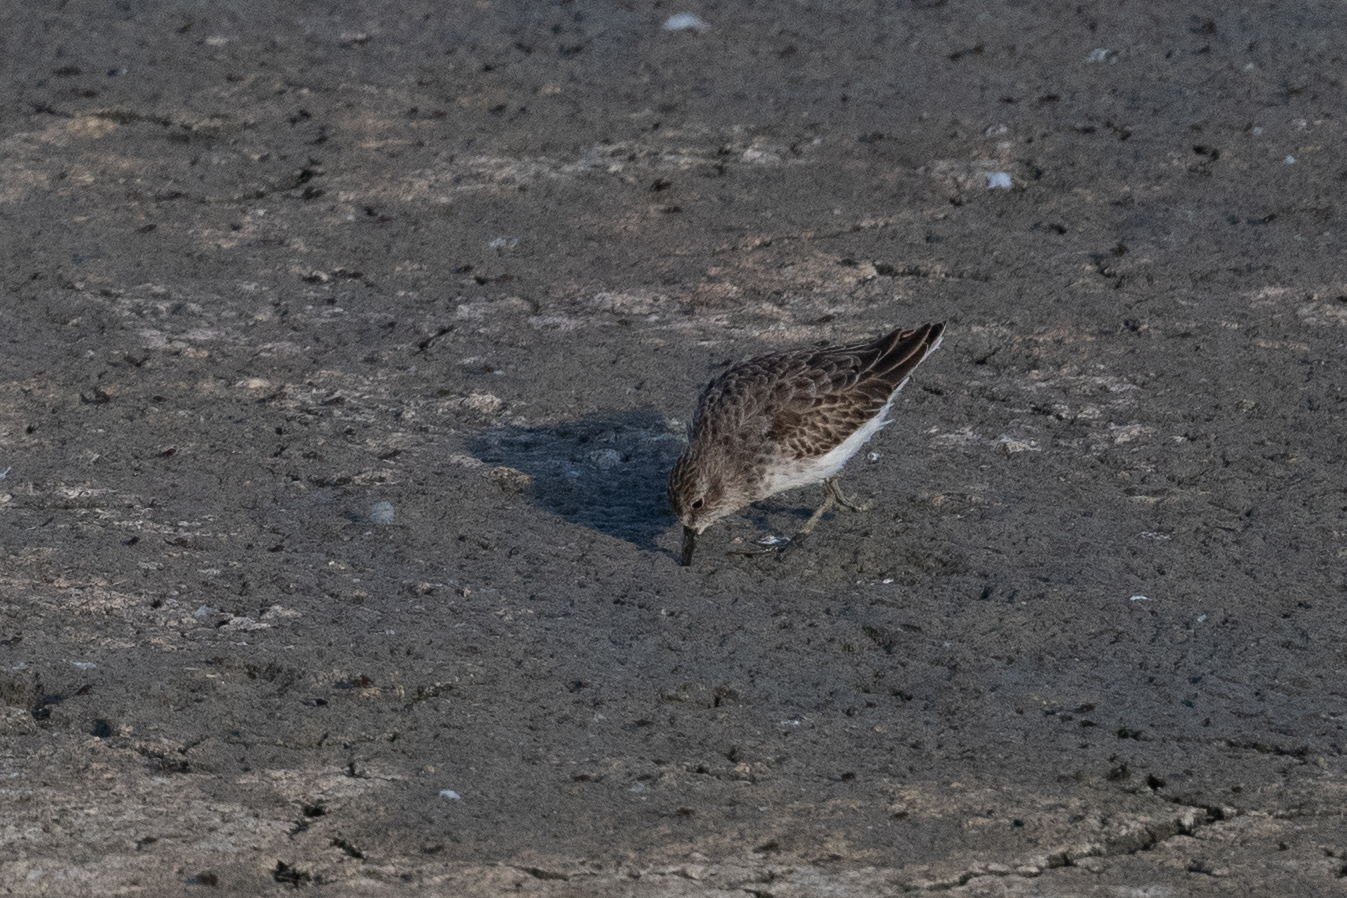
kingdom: Animalia
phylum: Chordata
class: Aves
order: Charadriiformes
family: Scolopacidae
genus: Calidris
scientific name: Calidris minutilla
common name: Least sandpiper
